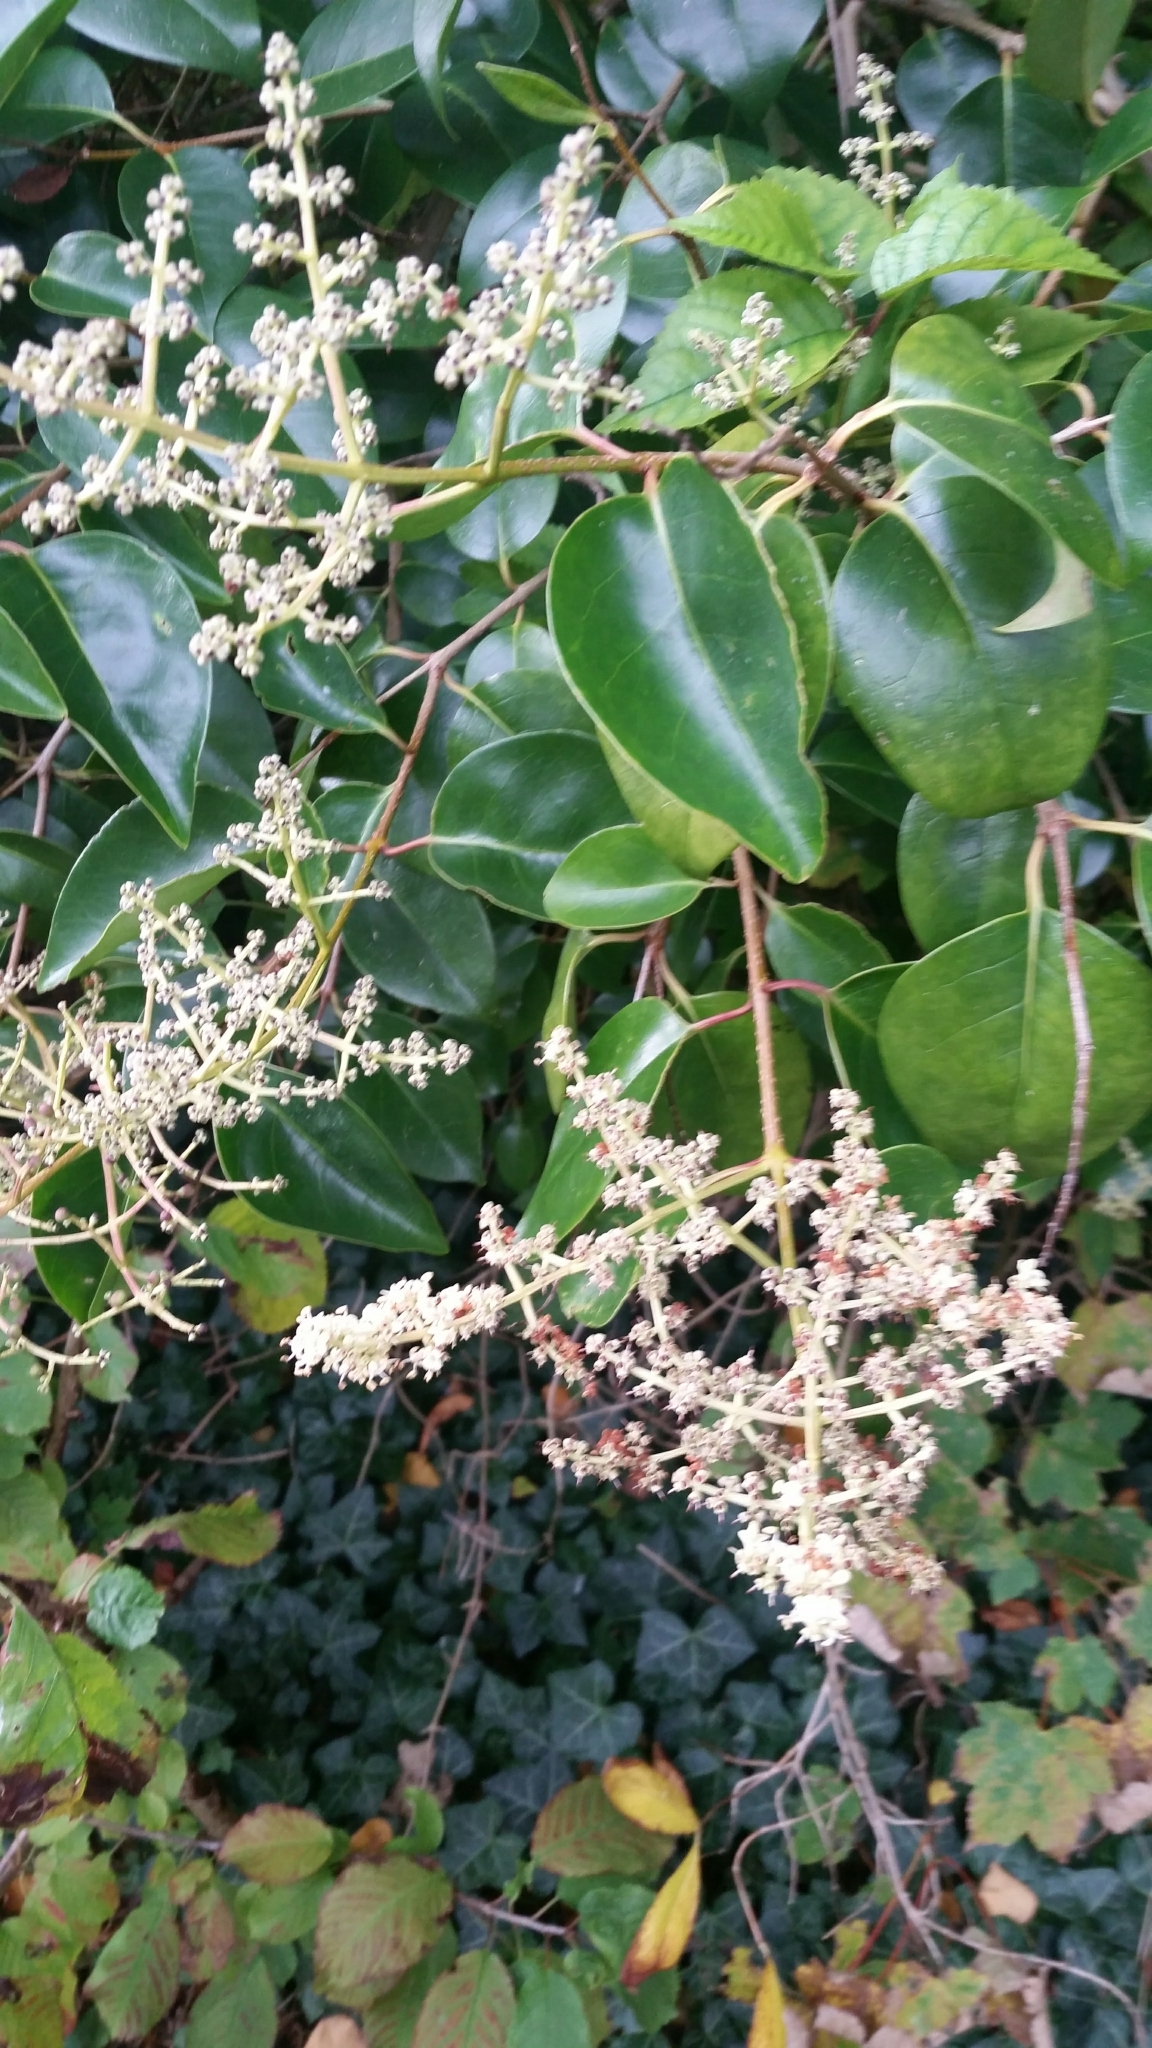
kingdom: Plantae
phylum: Tracheophyta
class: Magnoliopsida
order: Lamiales
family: Oleaceae
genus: Ligustrum
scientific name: Ligustrum lucidum
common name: Glossy privet
